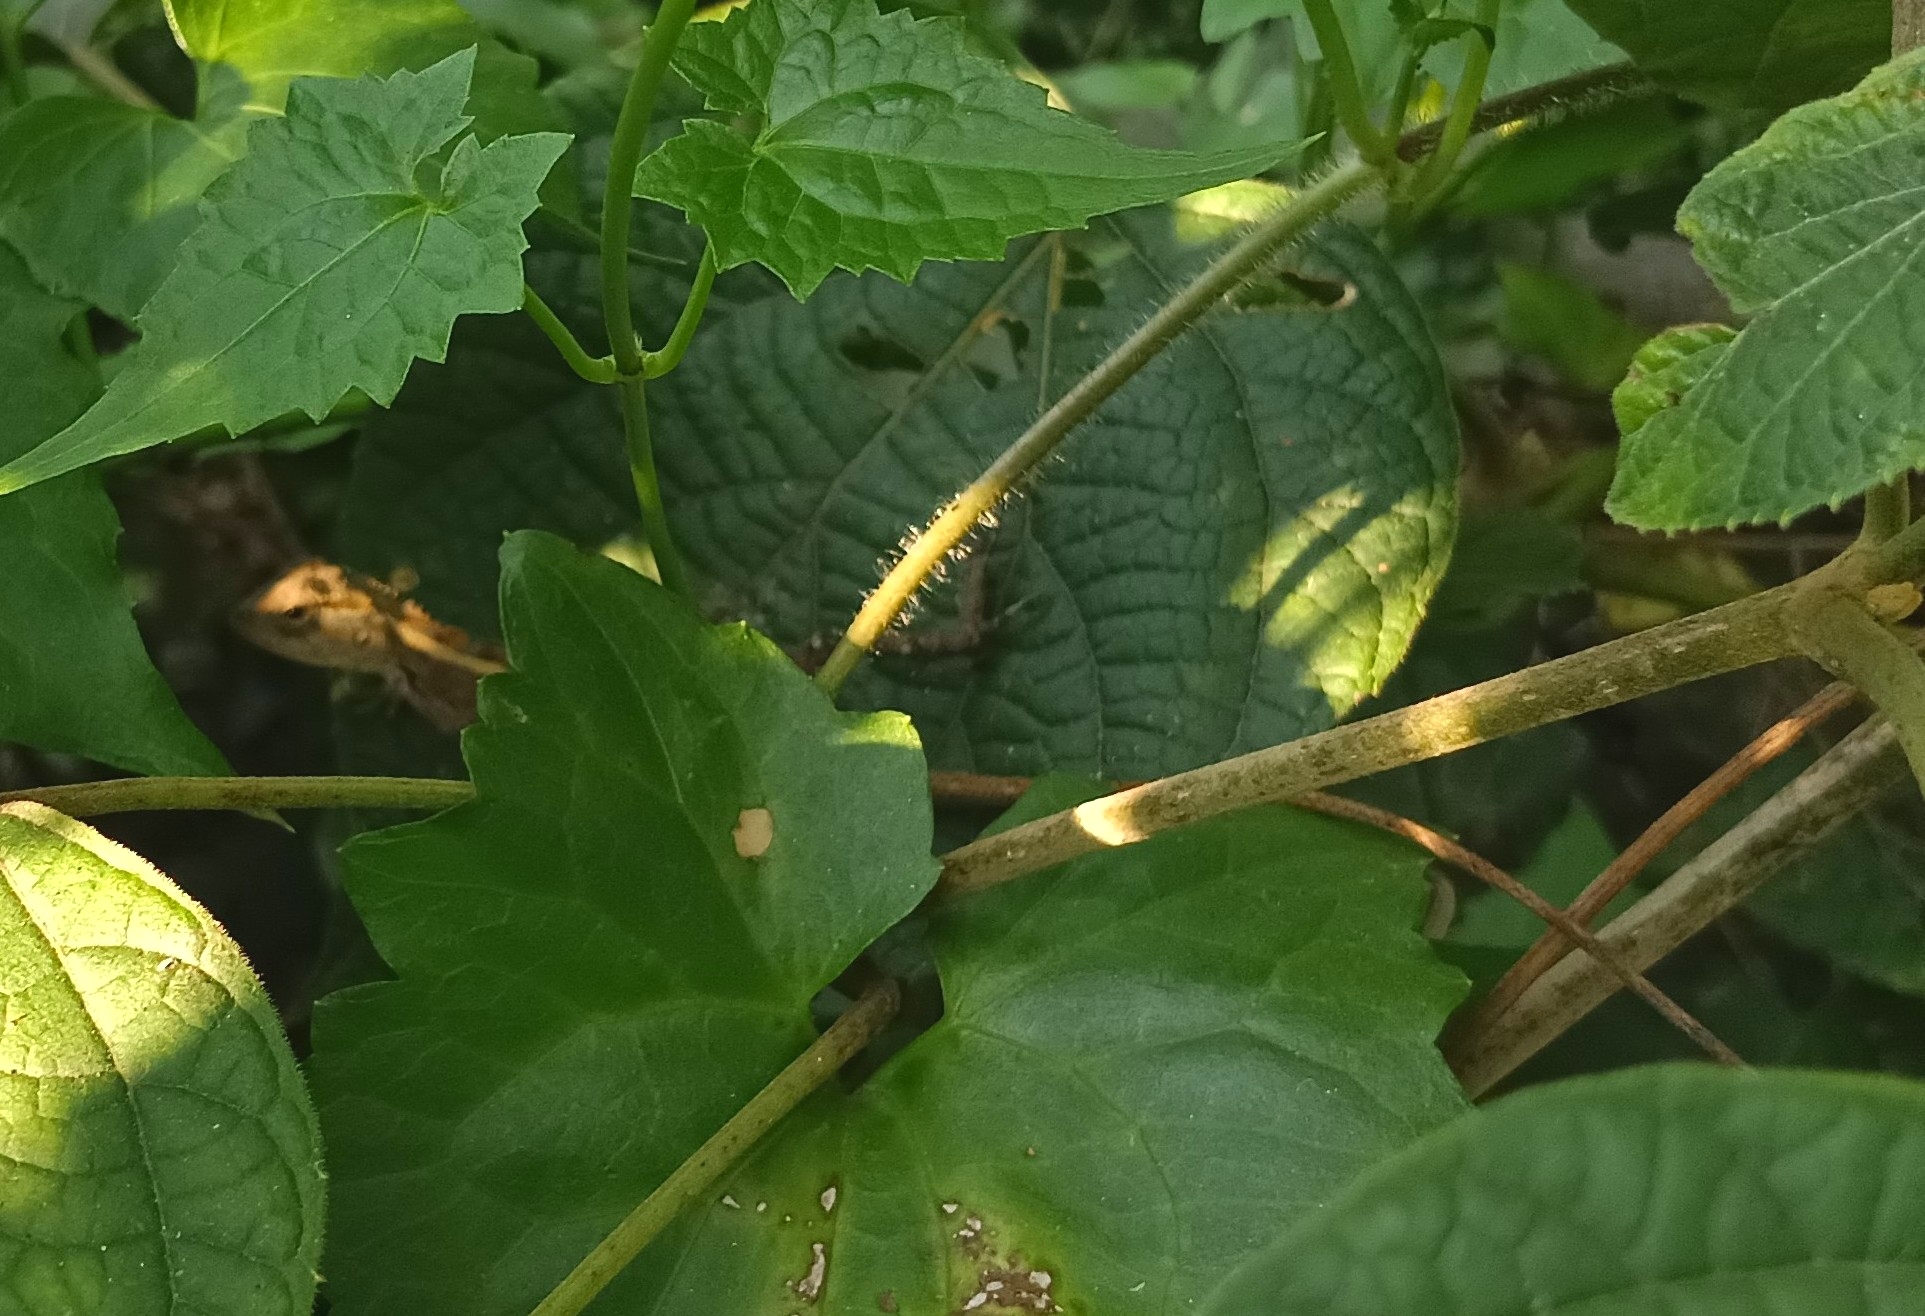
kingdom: Animalia
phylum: Chordata
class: Squamata
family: Agamidae
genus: Calotes
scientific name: Calotes versicolor
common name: Oriental garden lizard
